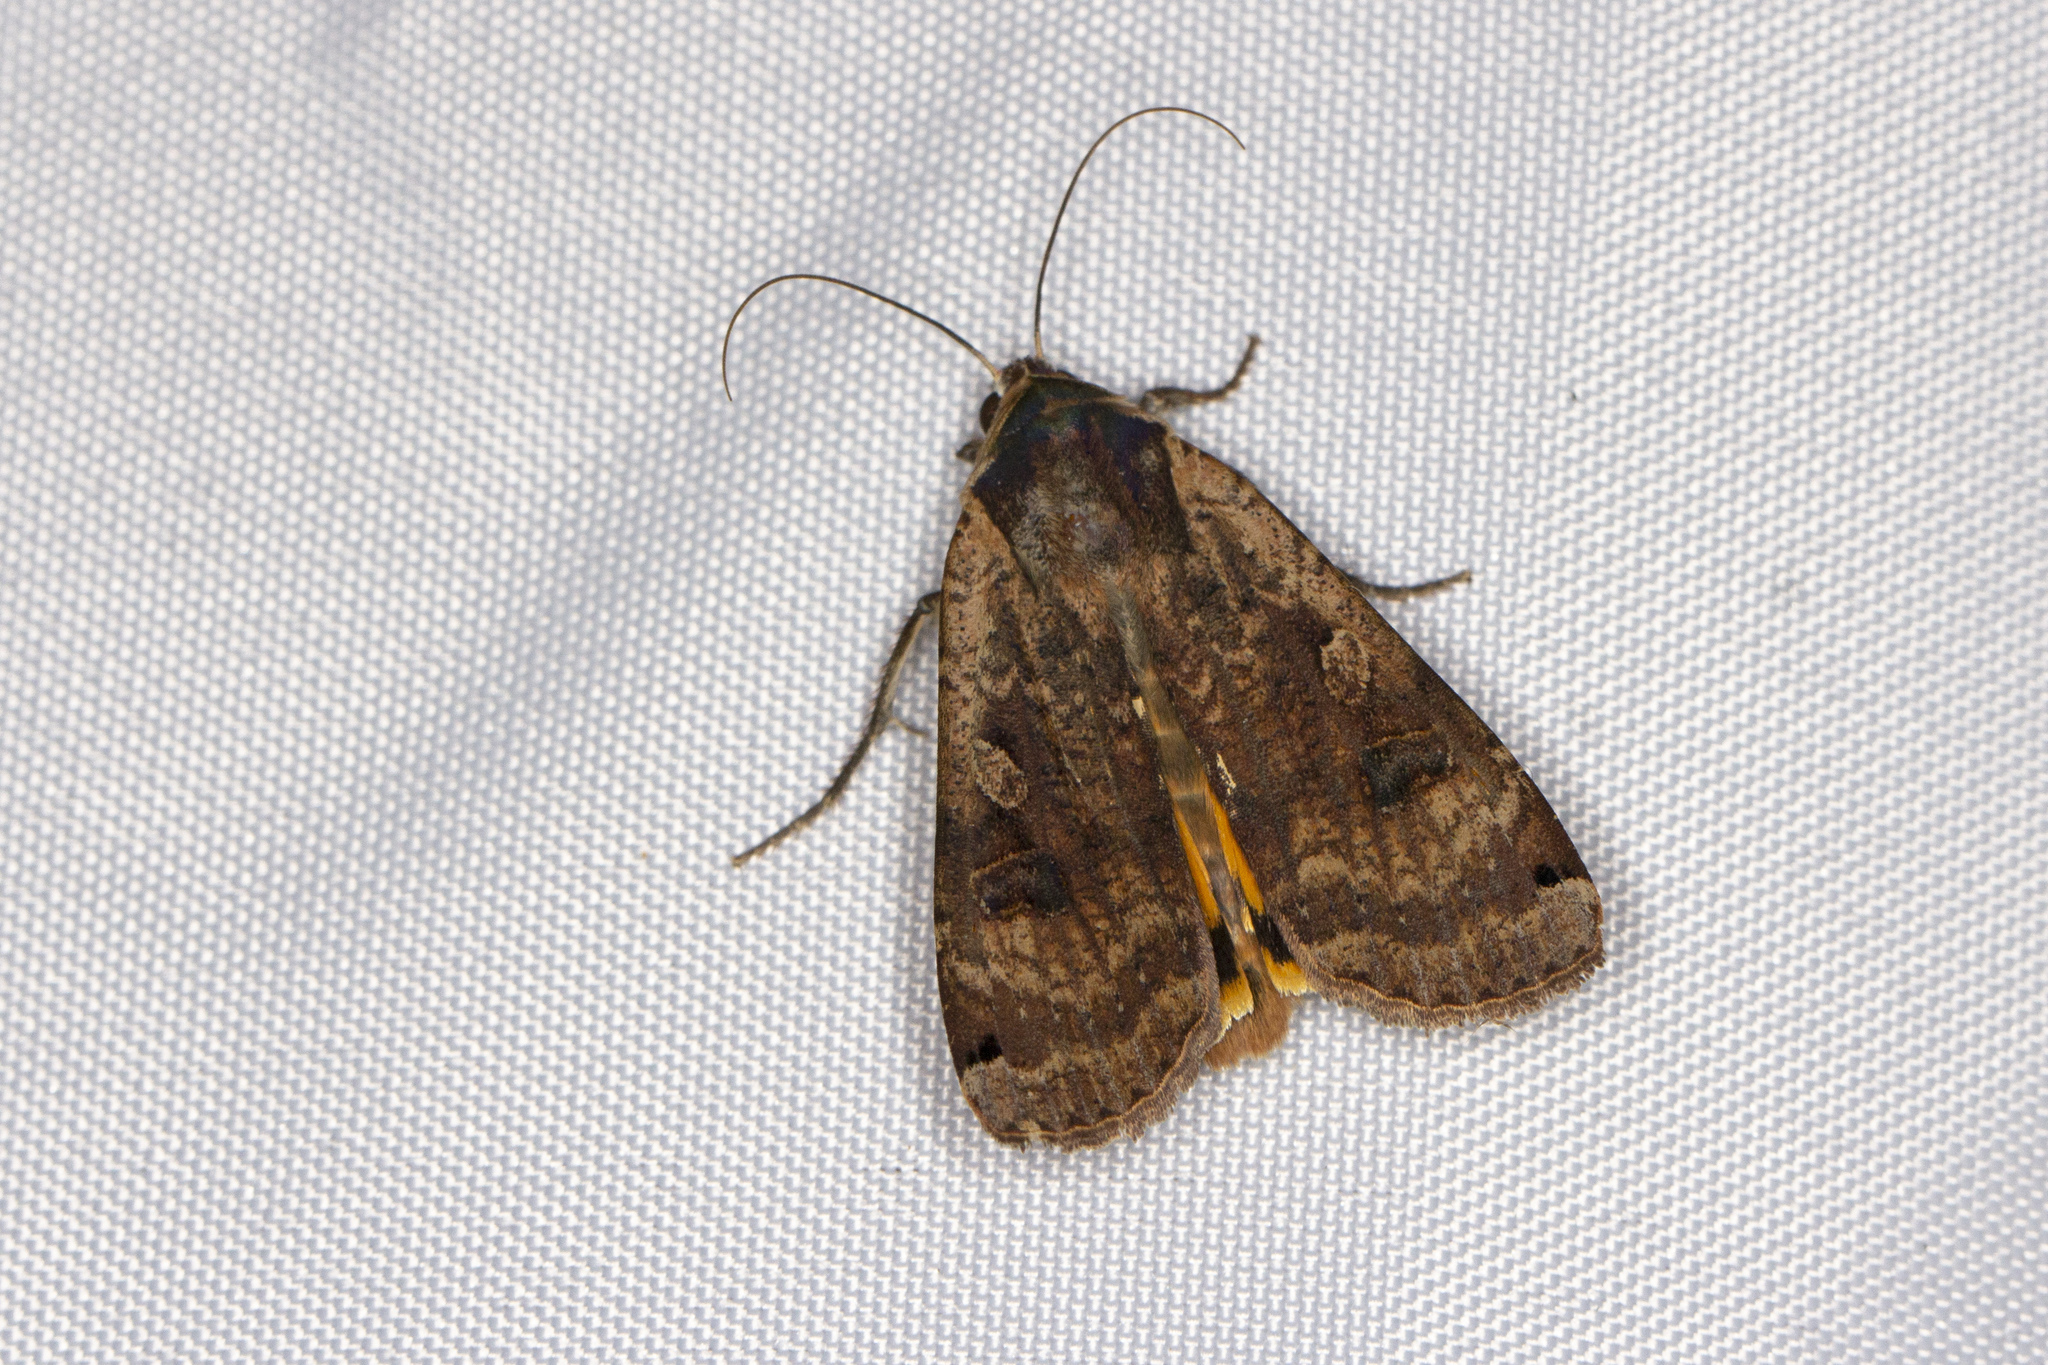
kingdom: Animalia
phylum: Arthropoda
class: Insecta
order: Lepidoptera
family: Noctuidae
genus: Noctua
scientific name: Noctua pronuba
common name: Large yellow underwing
